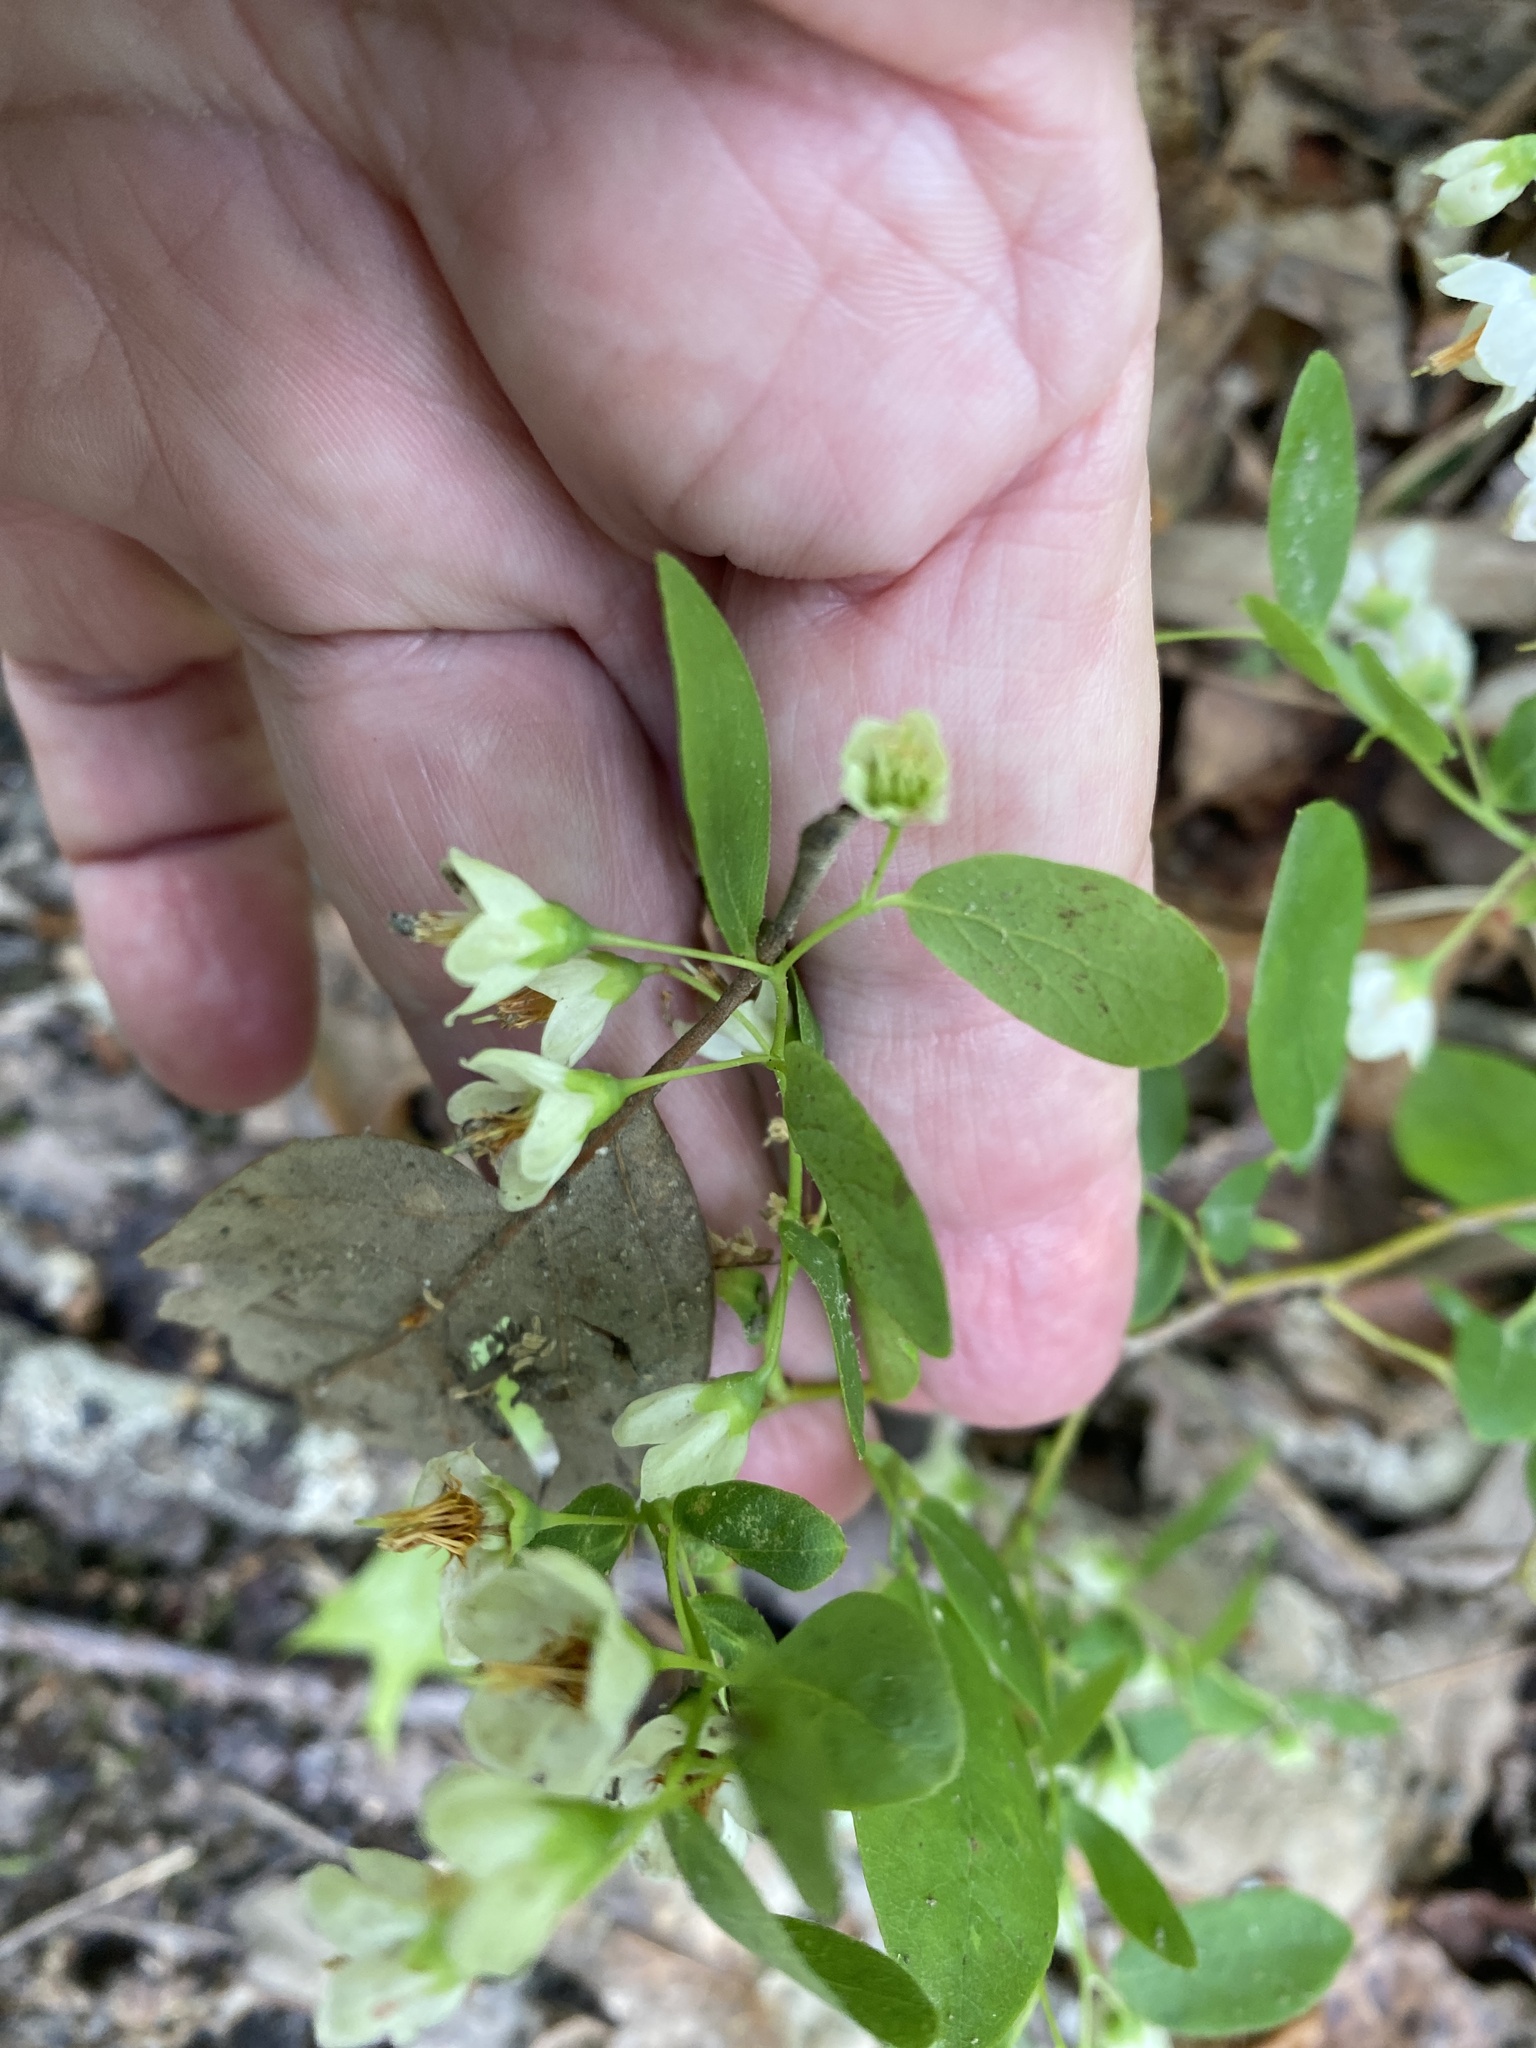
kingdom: Plantae
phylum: Tracheophyta
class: Magnoliopsida
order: Ericales
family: Ericaceae
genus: Vaccinium
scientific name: Vaccinium stamineum
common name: Deerberry
